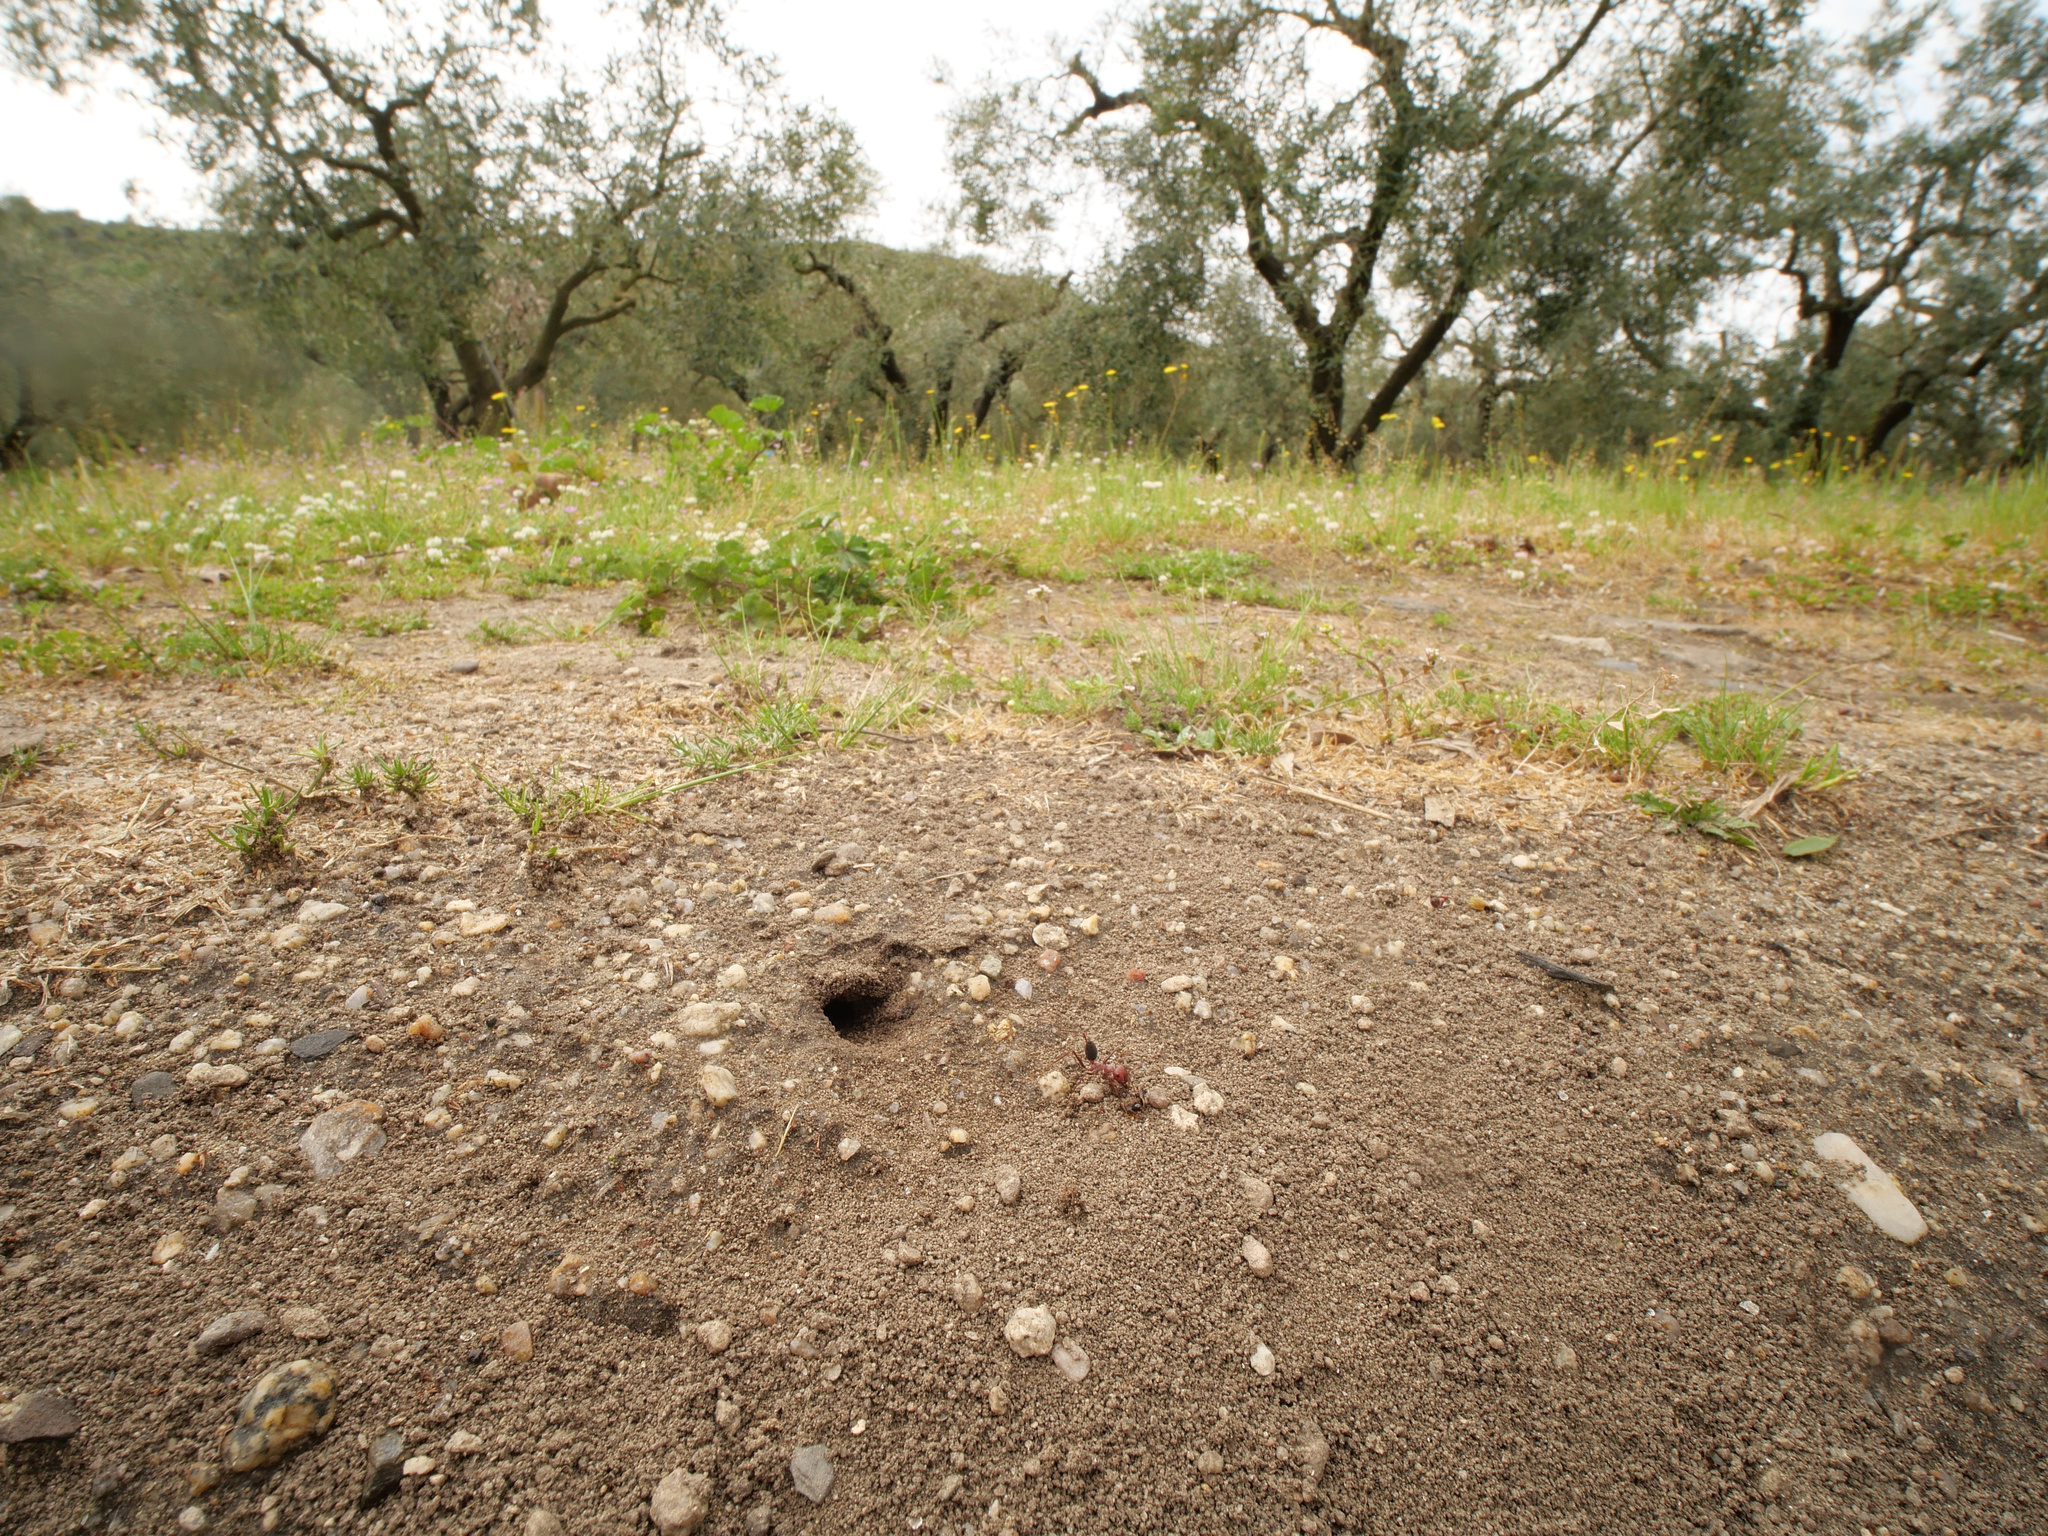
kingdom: Animalia
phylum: Arthropoda
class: Insecta
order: Hymenoptera
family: Formicidae
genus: Cataglyphis
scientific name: Cataglyphis nodus
